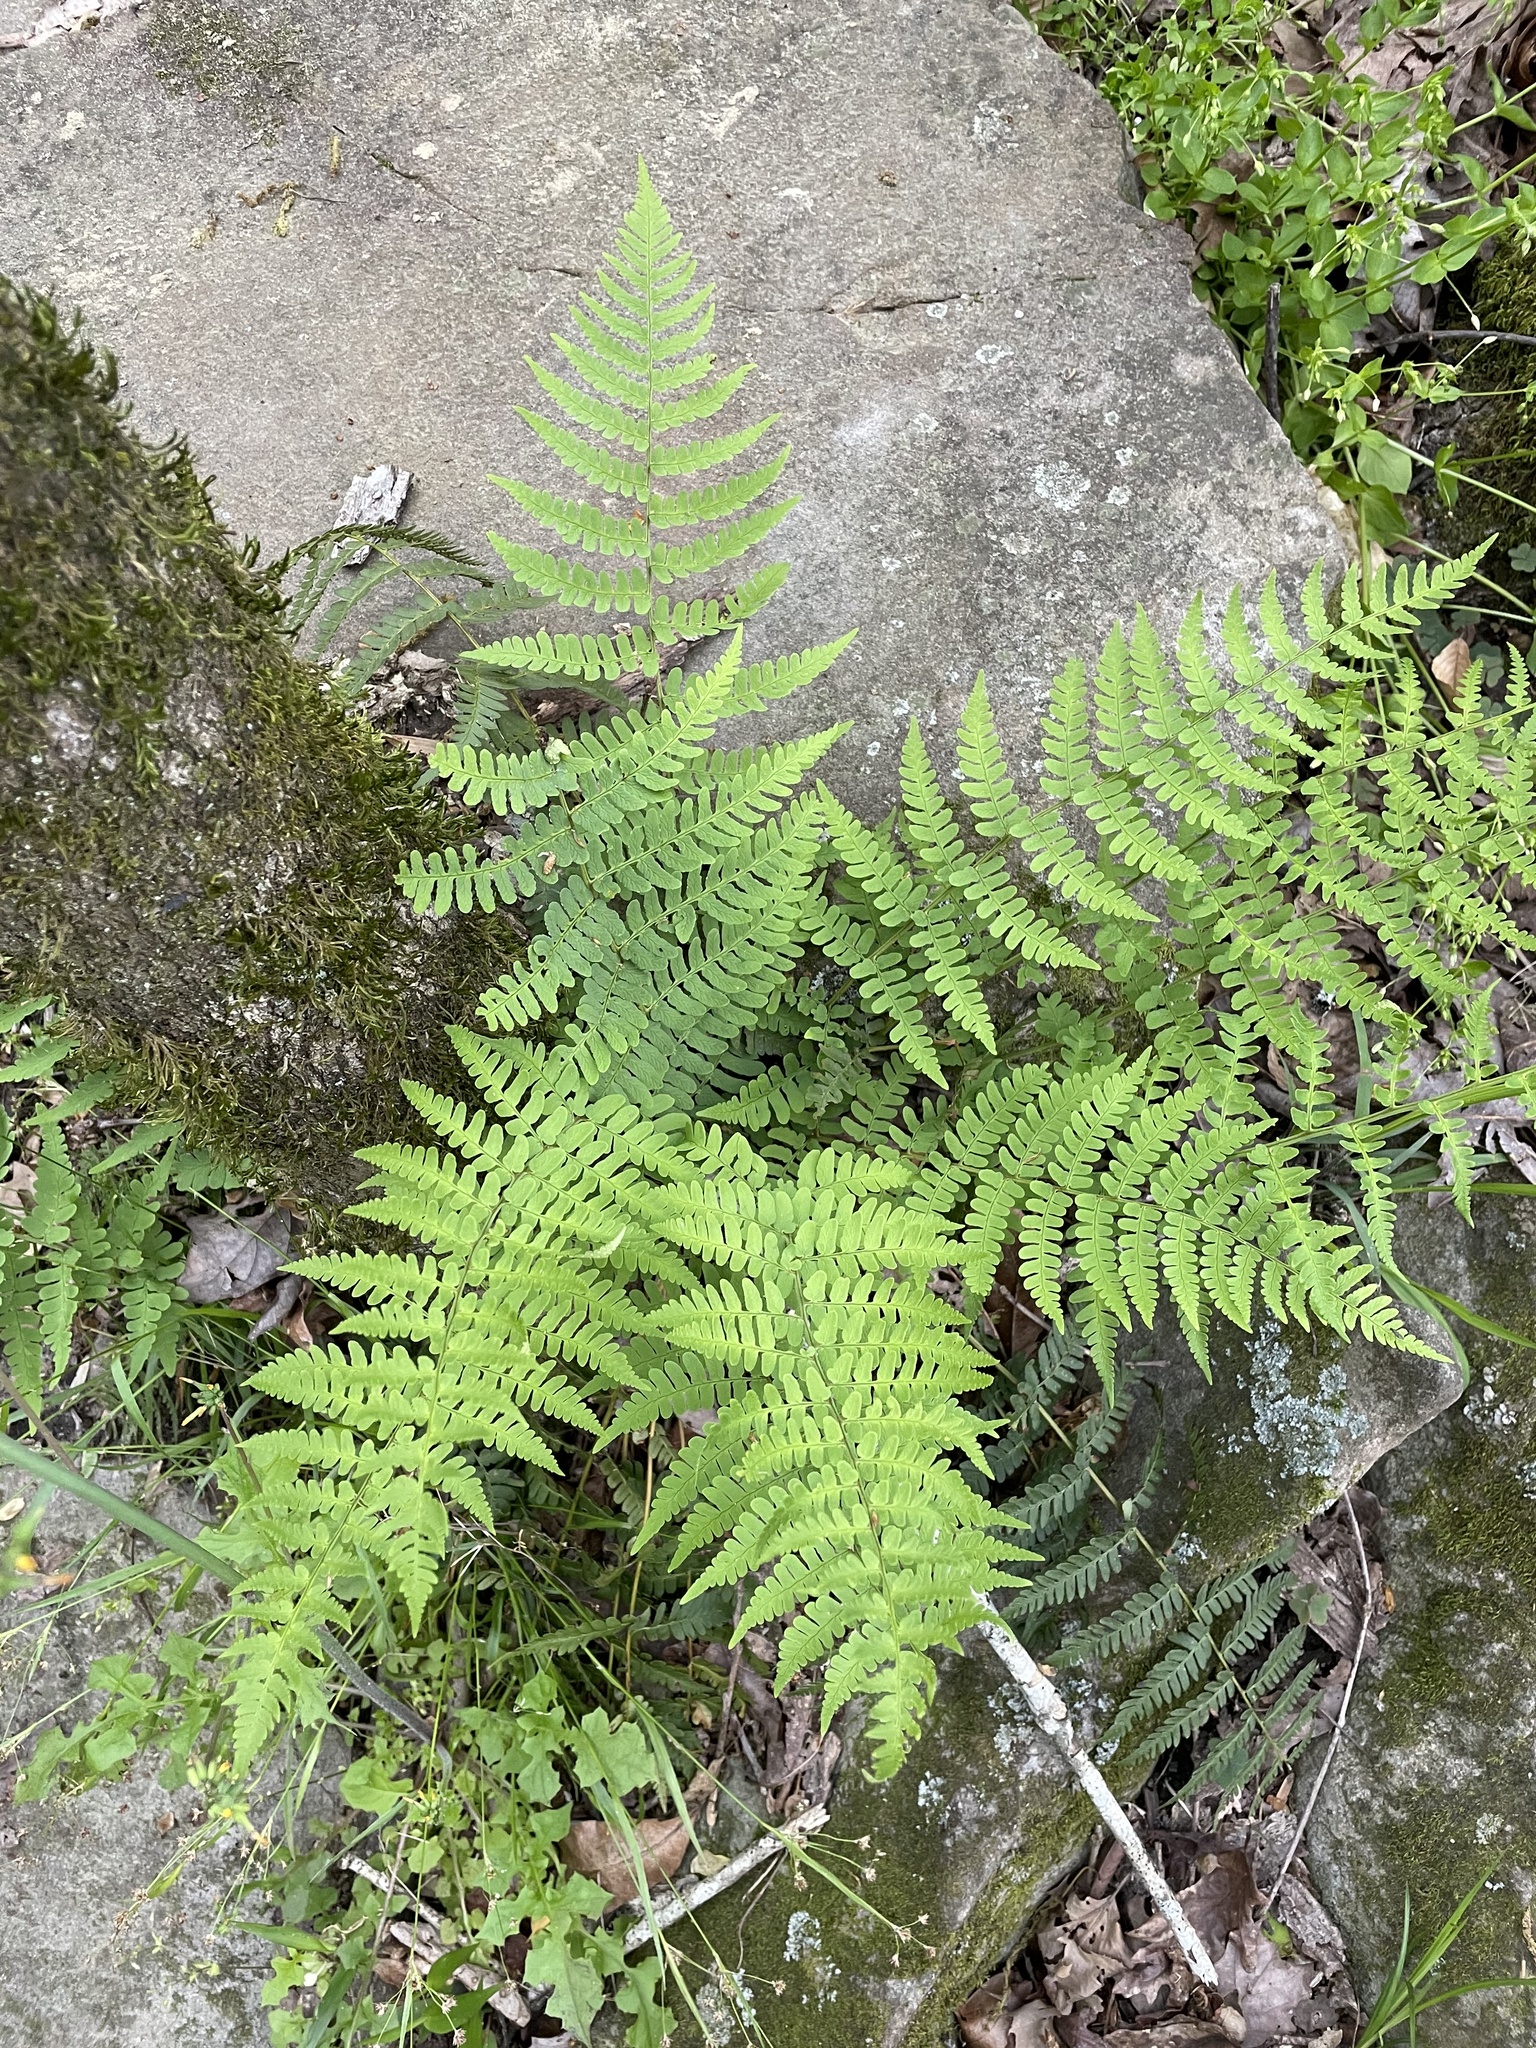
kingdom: Plantae
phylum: Tracheophyta
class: Polypodiopsida
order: Polypodiales
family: Dryopteridaceae
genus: Dryopteris
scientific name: Dryopteris marginalis
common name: Marginal wood fern
